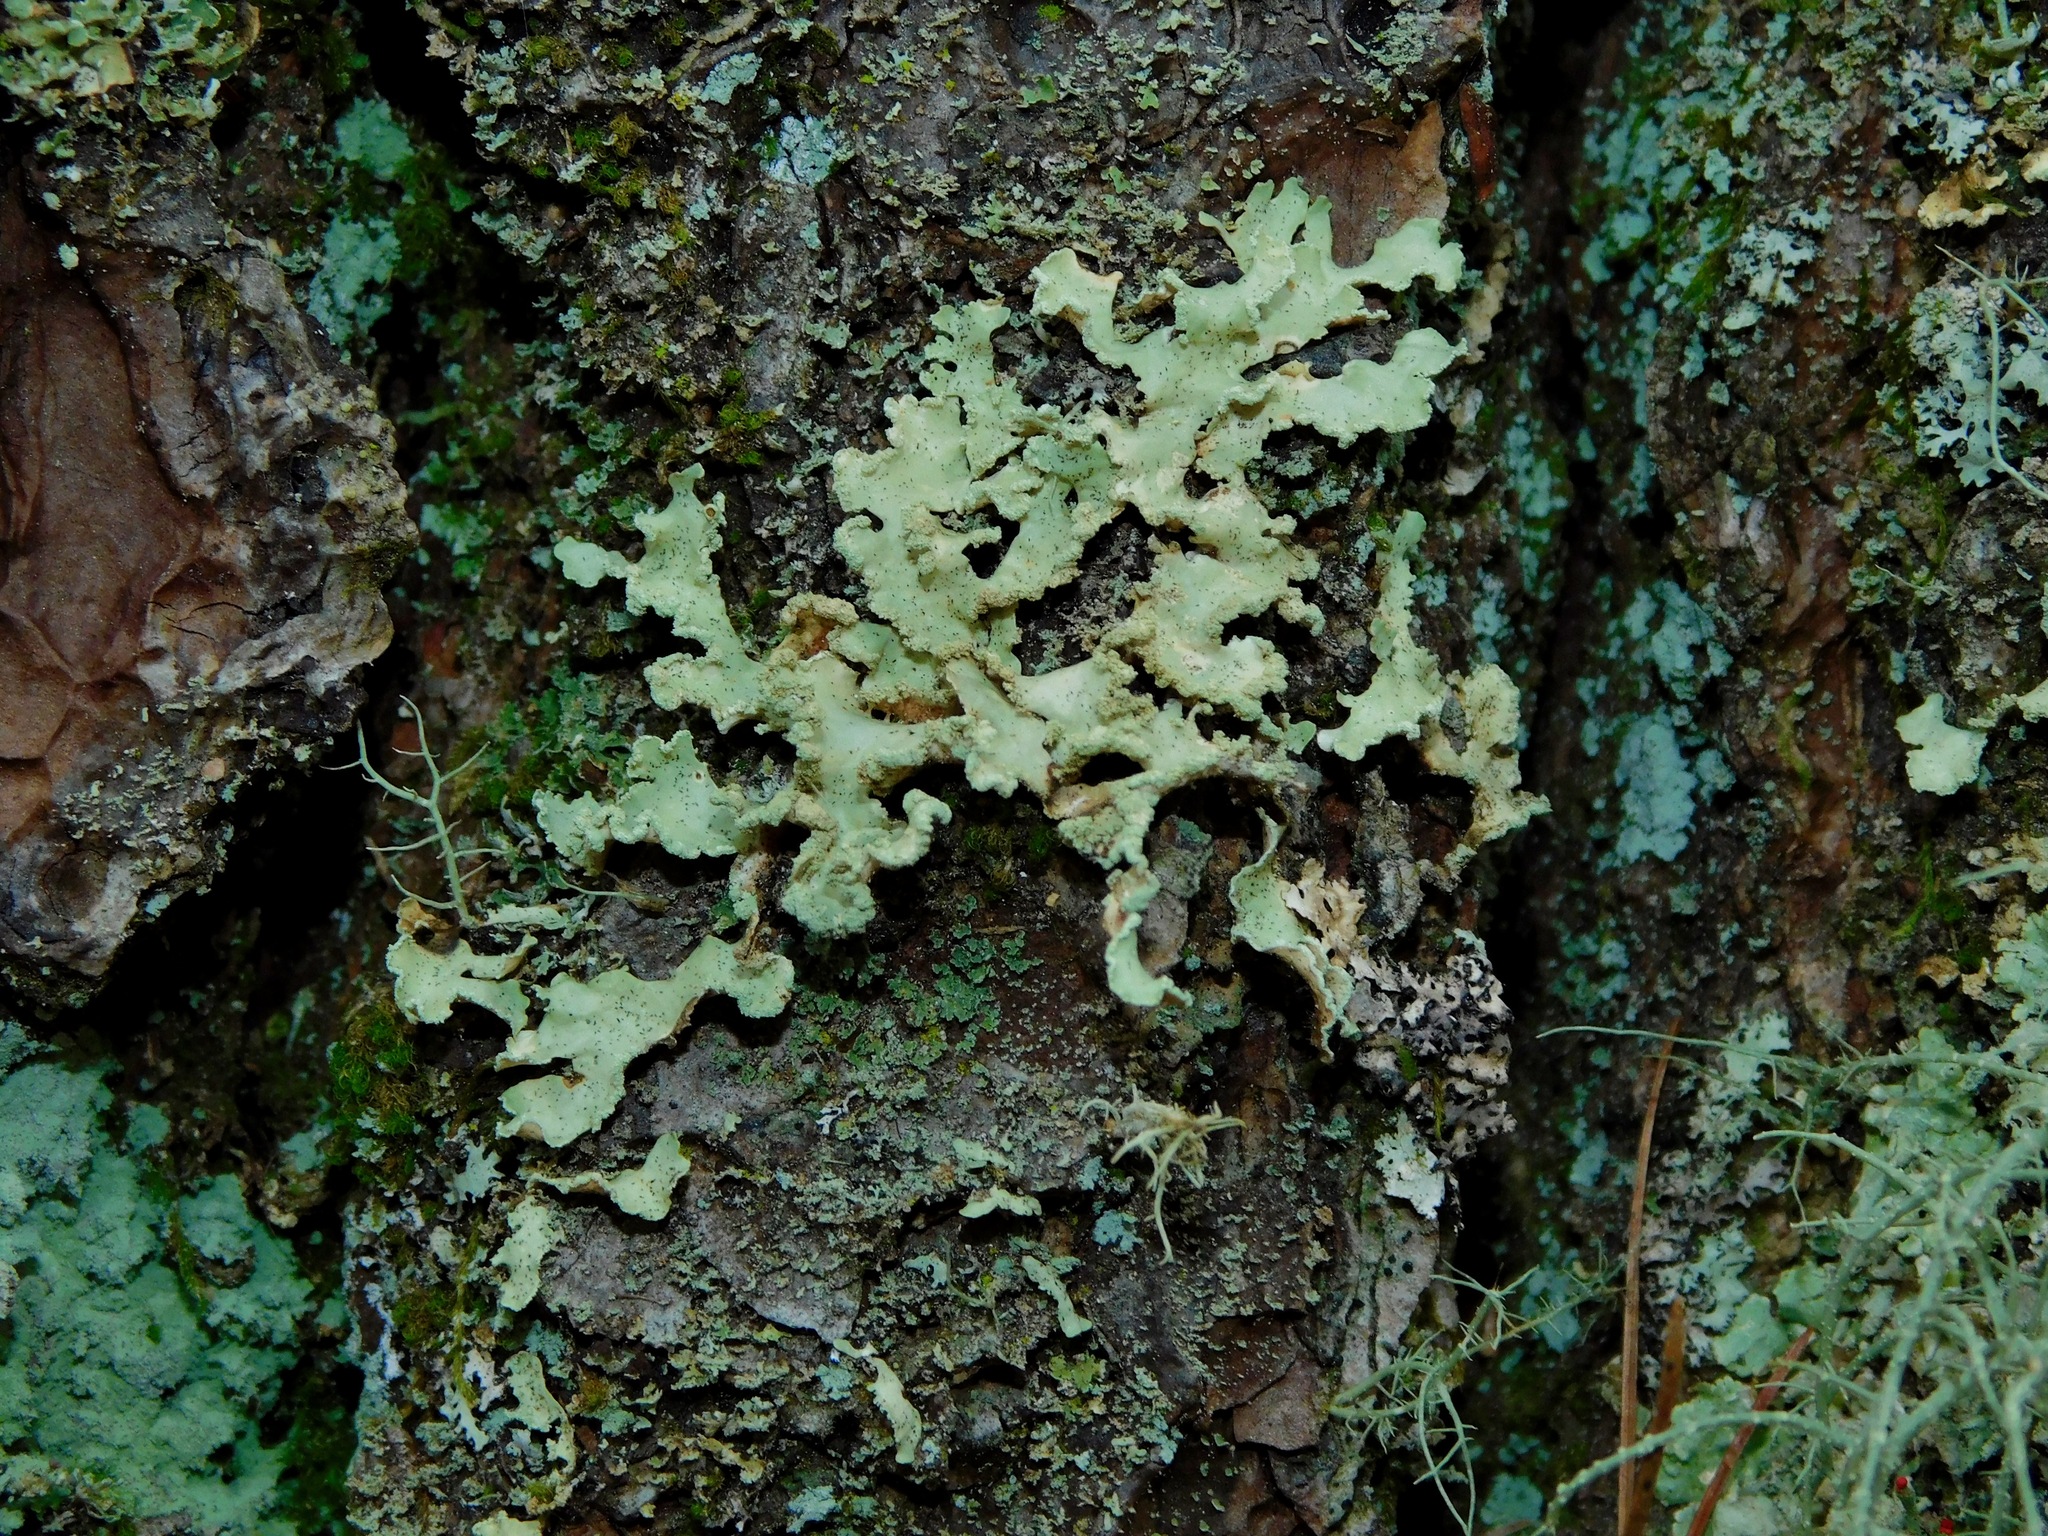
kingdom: Fungi
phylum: Ascomycota
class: Lecanoromycetes
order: Lecanorales
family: Parmeliaceae
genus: Usnocetraria
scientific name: Usnocetraria oakesiana
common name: Yellow ribbon lichen
